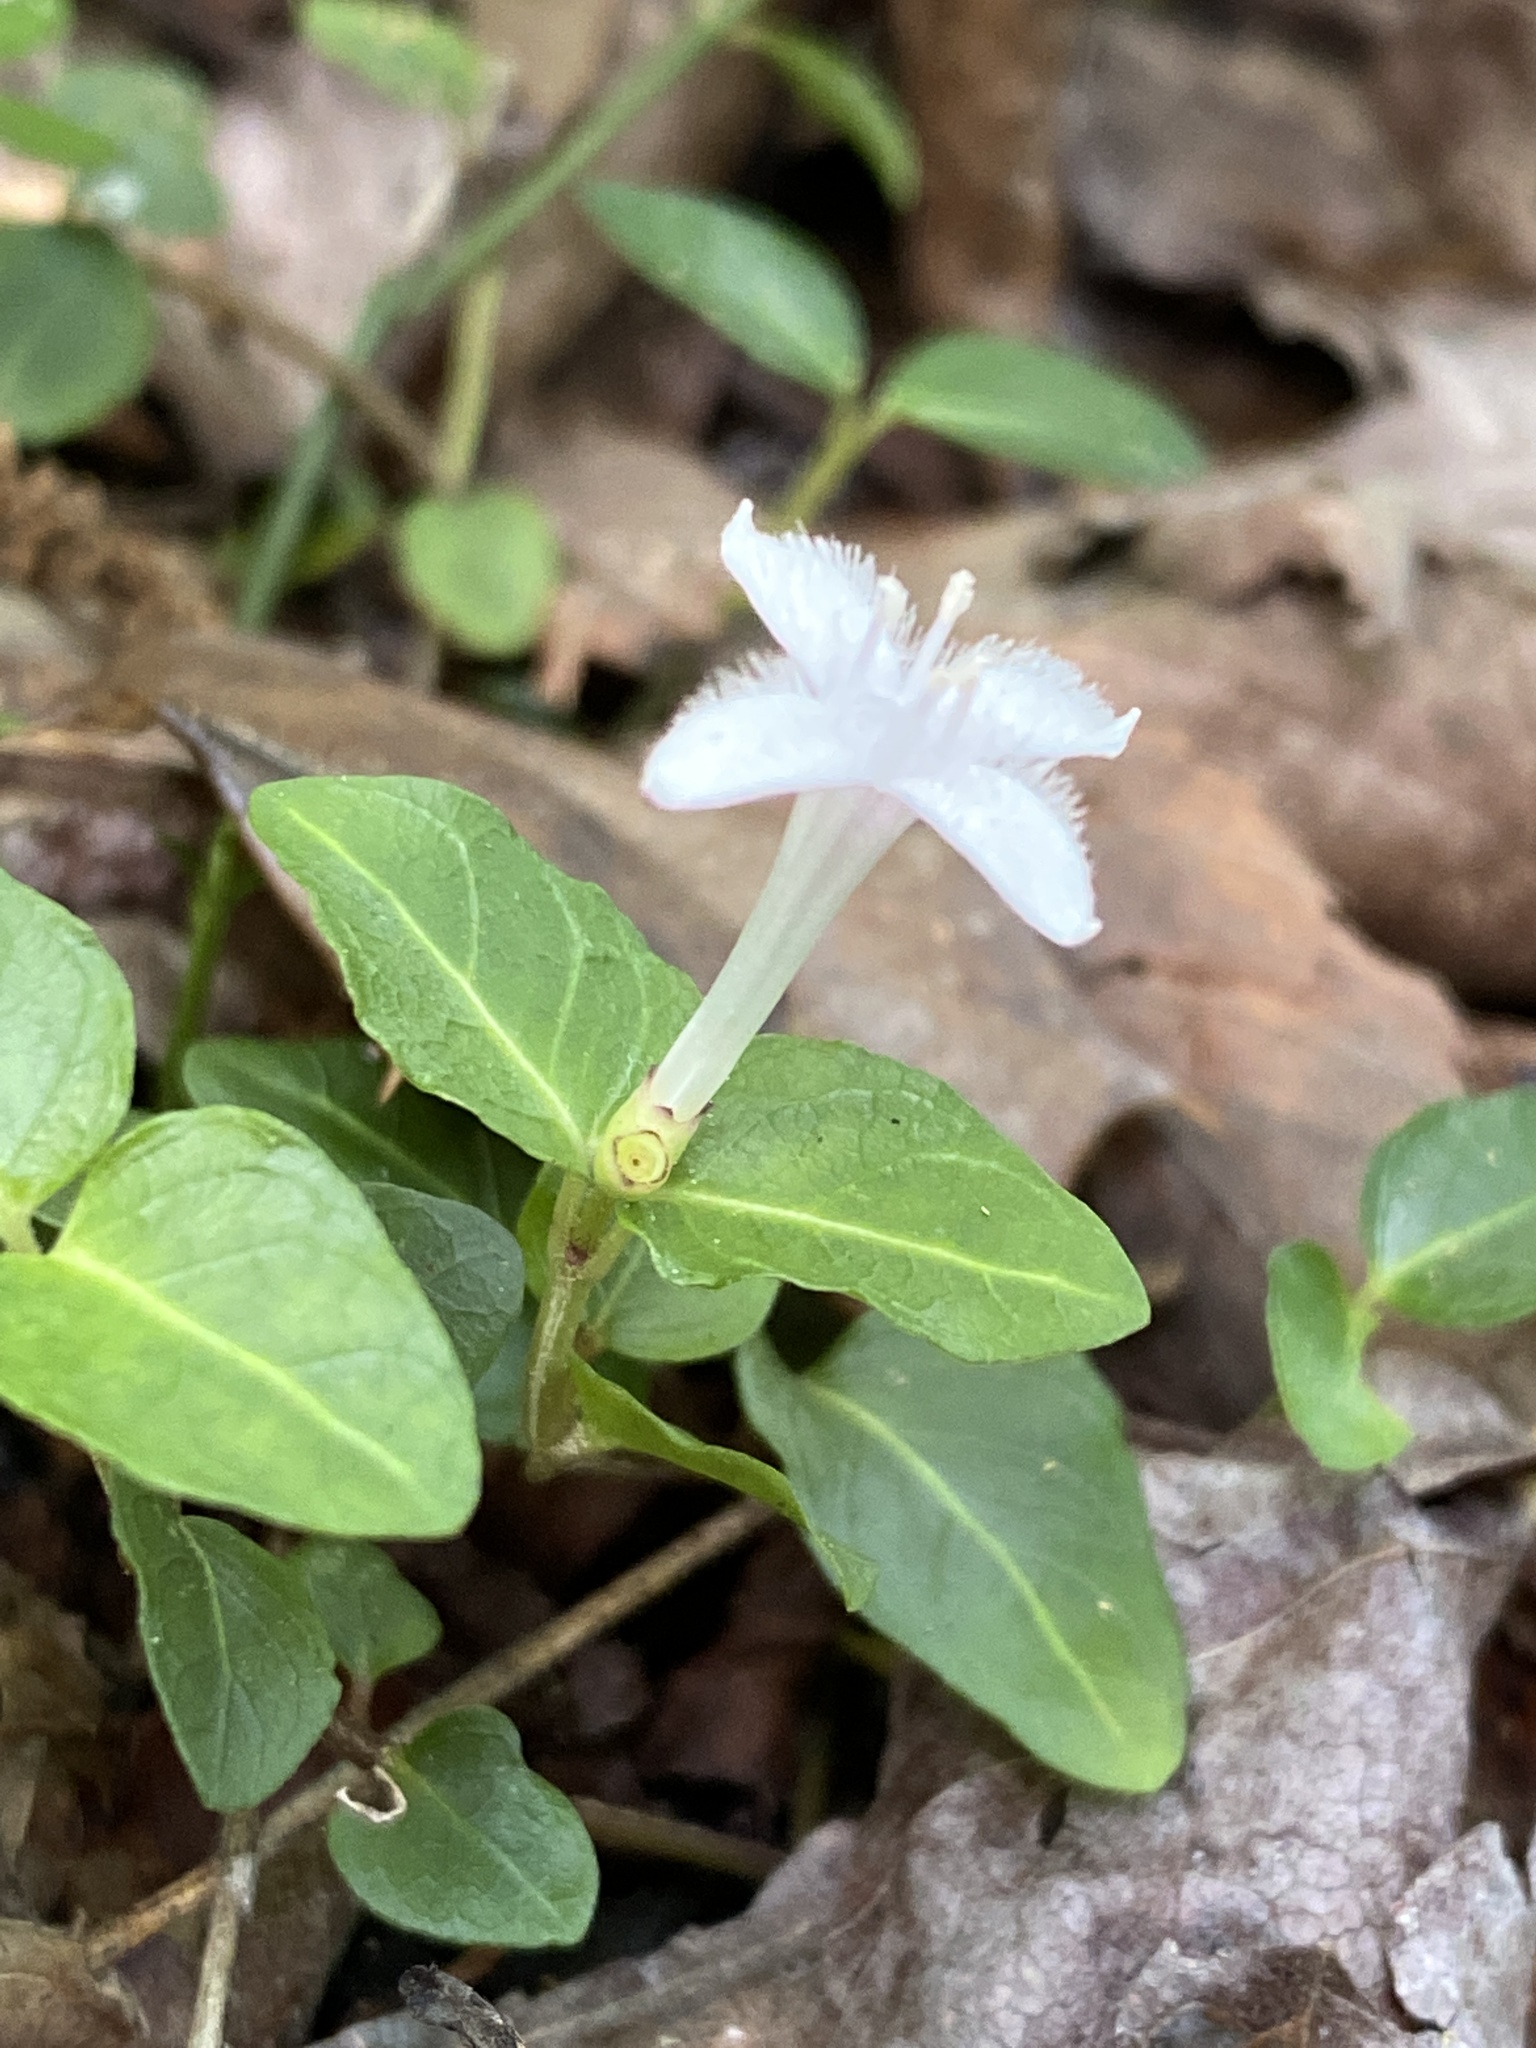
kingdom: Plantae
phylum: Tracheophyta
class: Magnoliopsida
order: Gentianales
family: Rubiaceae
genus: Mitchella
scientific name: Mitchella repens
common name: Partridge-berry
